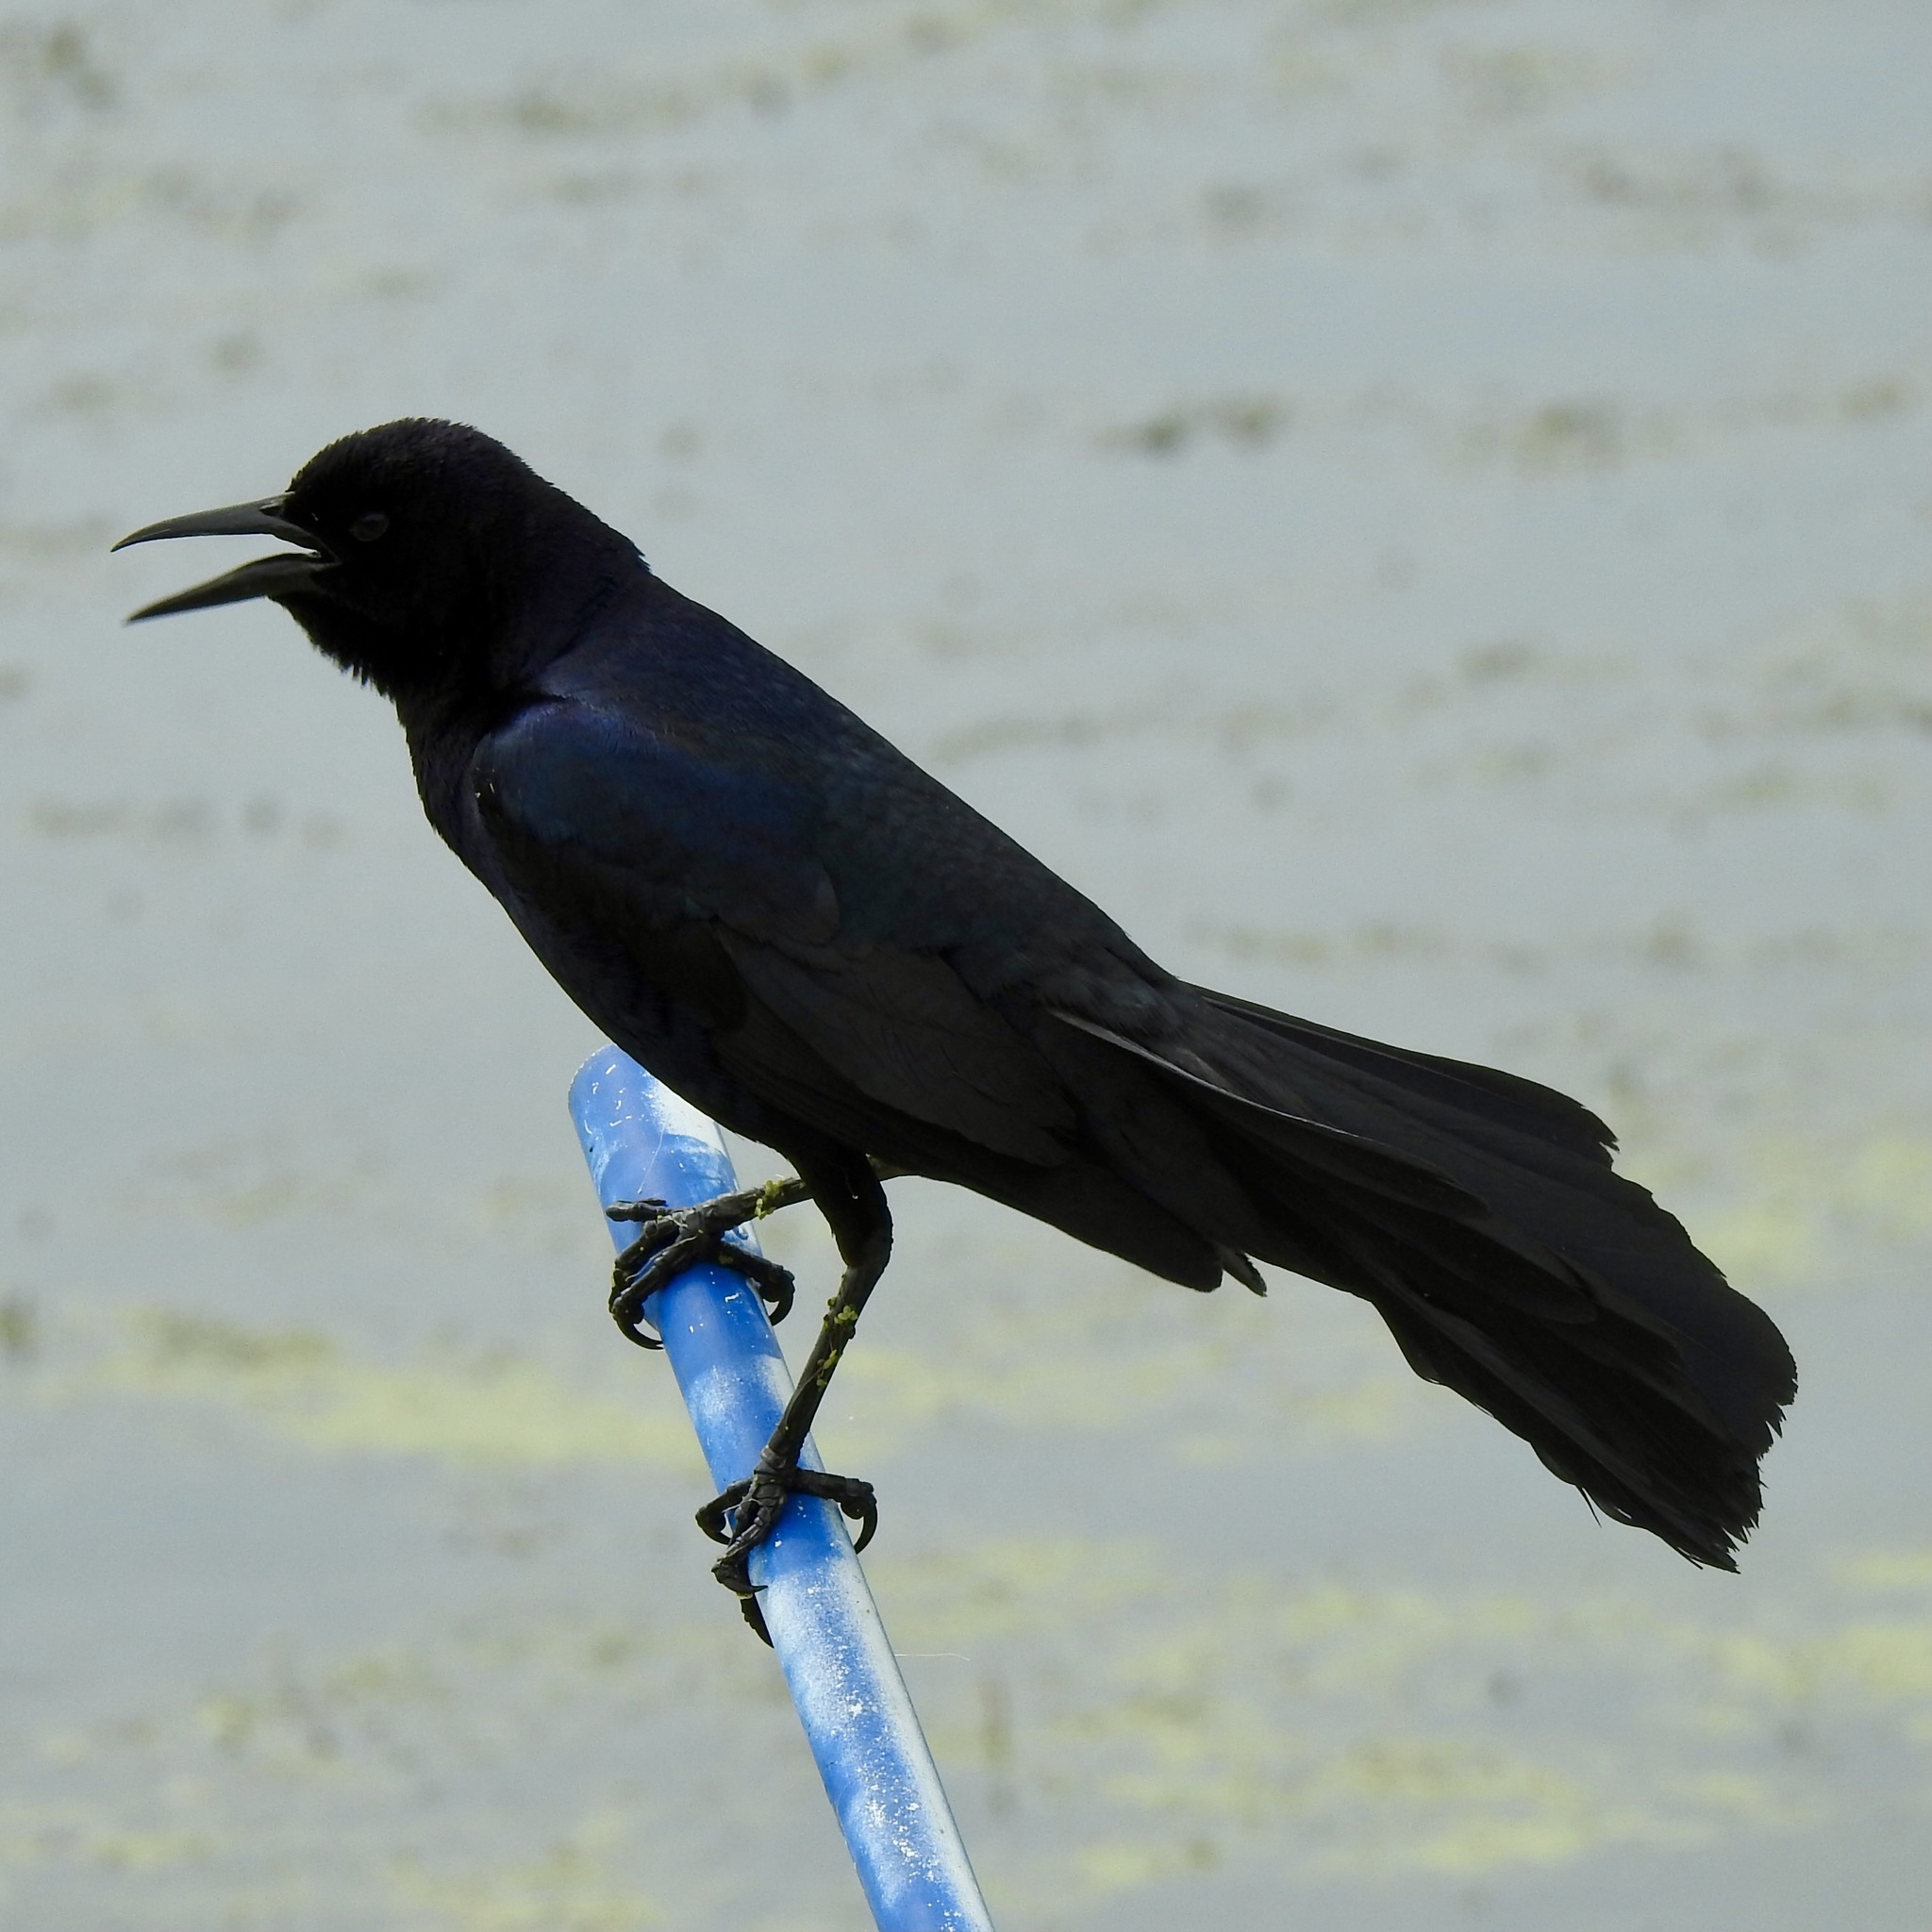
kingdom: Animalia
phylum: Chordata
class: Aves
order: Passeriformes
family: Icteridae
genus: Quiscalus
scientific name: Quiscalus major
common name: Boat-tailed grackle
